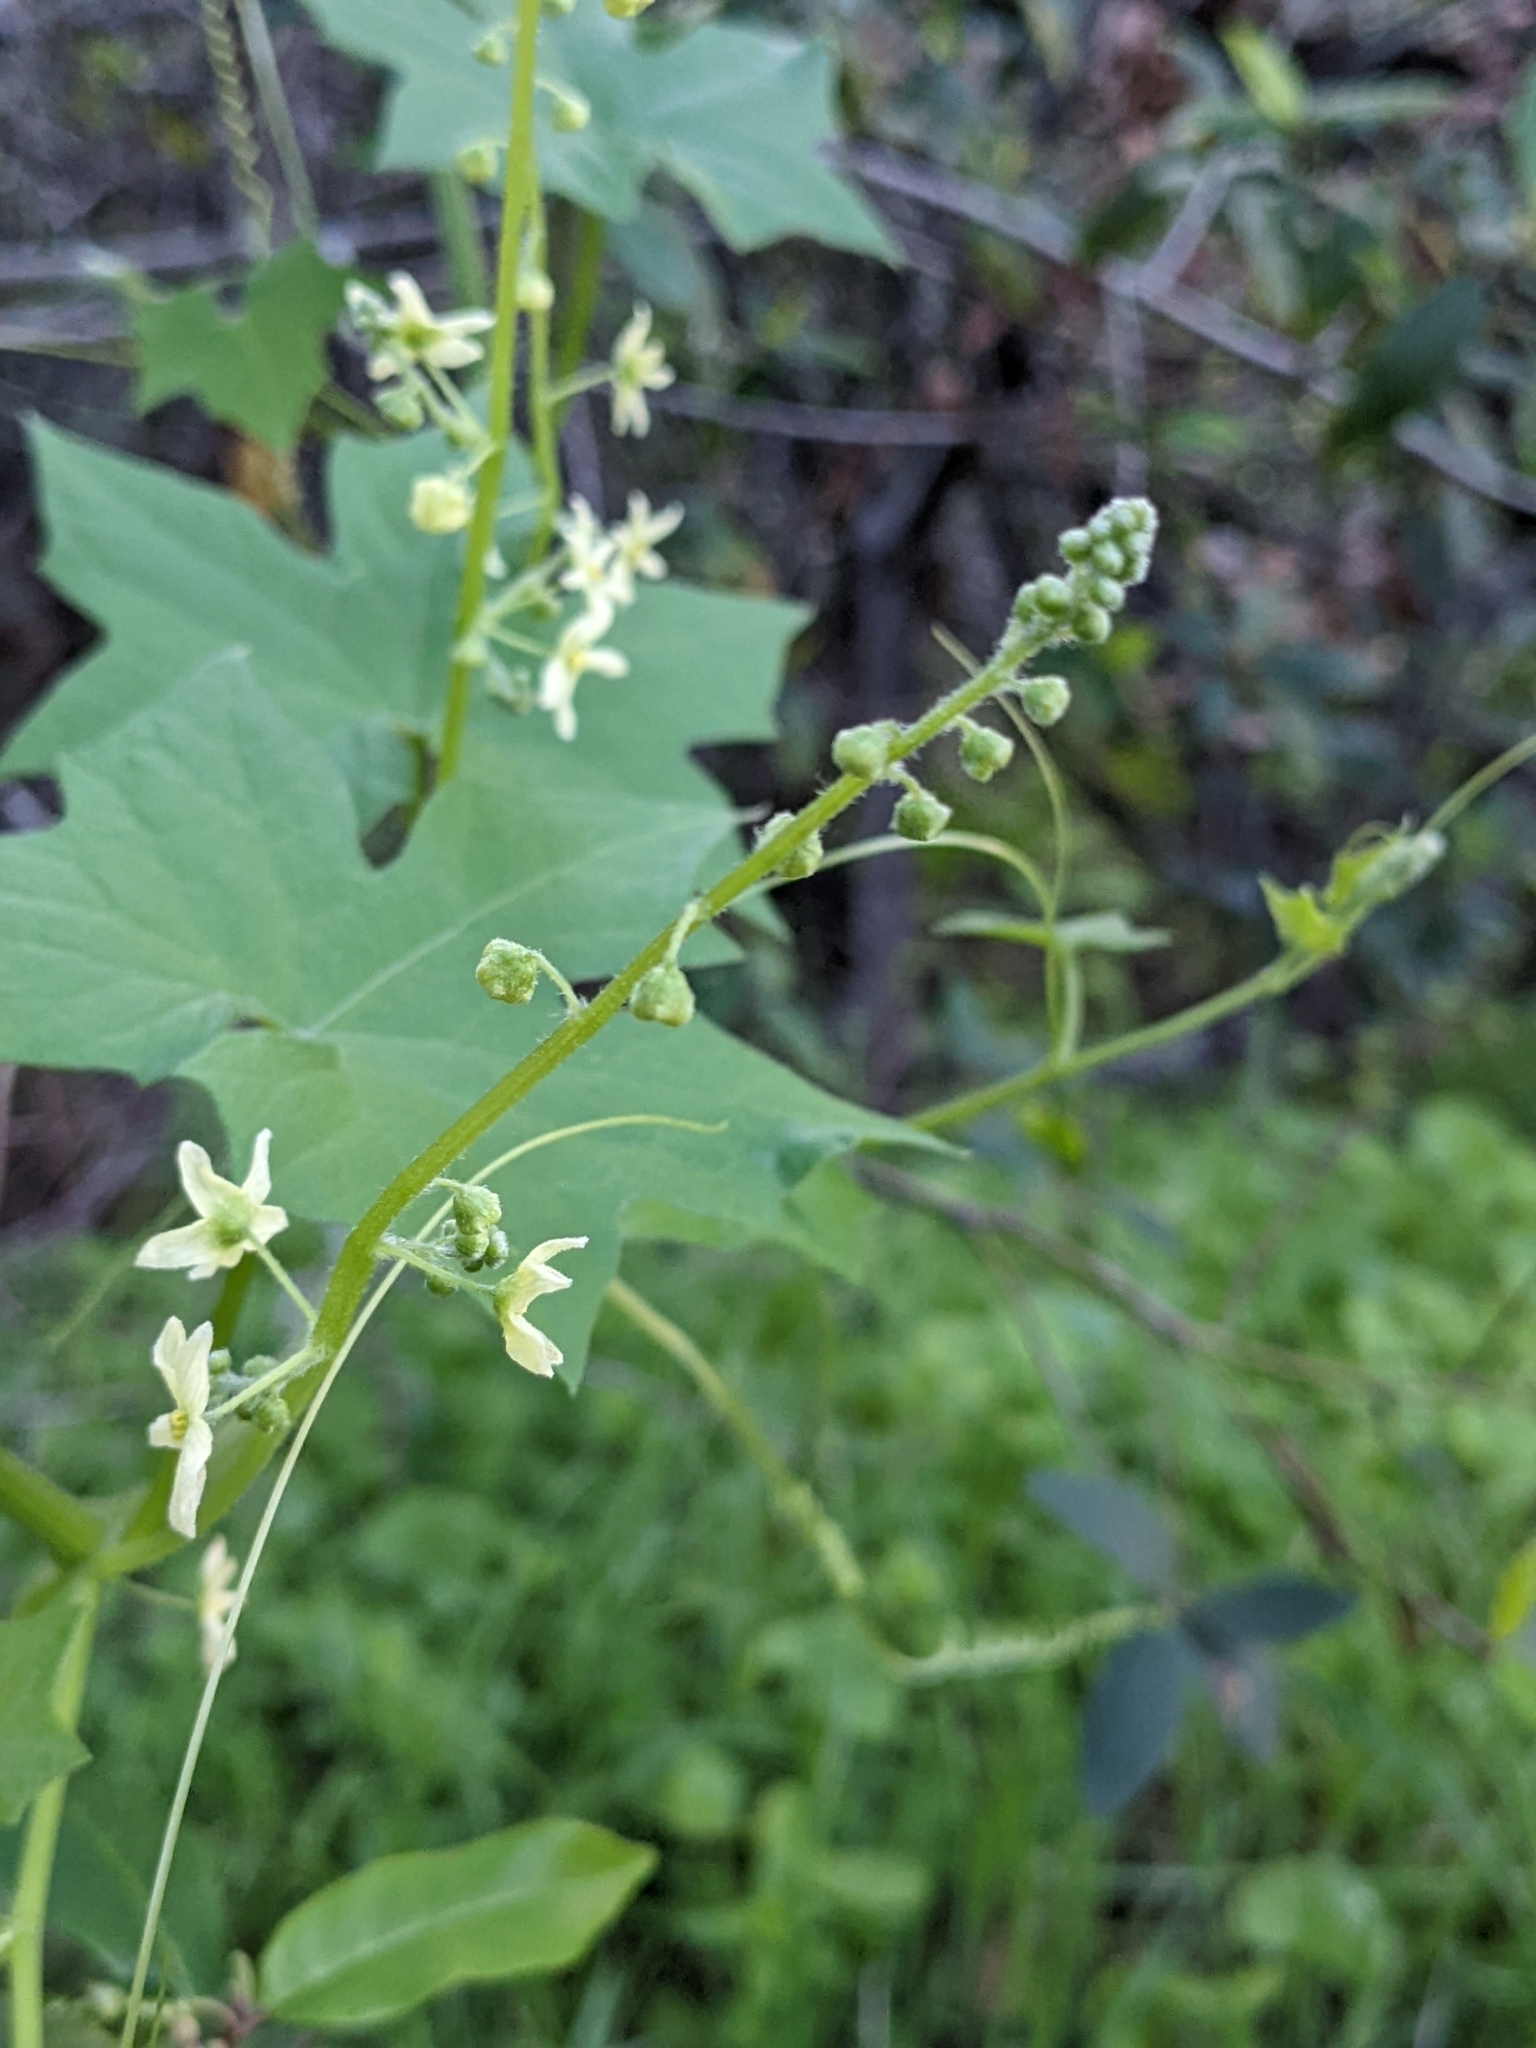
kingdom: Plantae
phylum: Tracheophyta
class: Magnoliopsida
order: Cucurbitales
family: Cucurbitaceae
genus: Marah
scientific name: Marah fabacea
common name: California manroot
